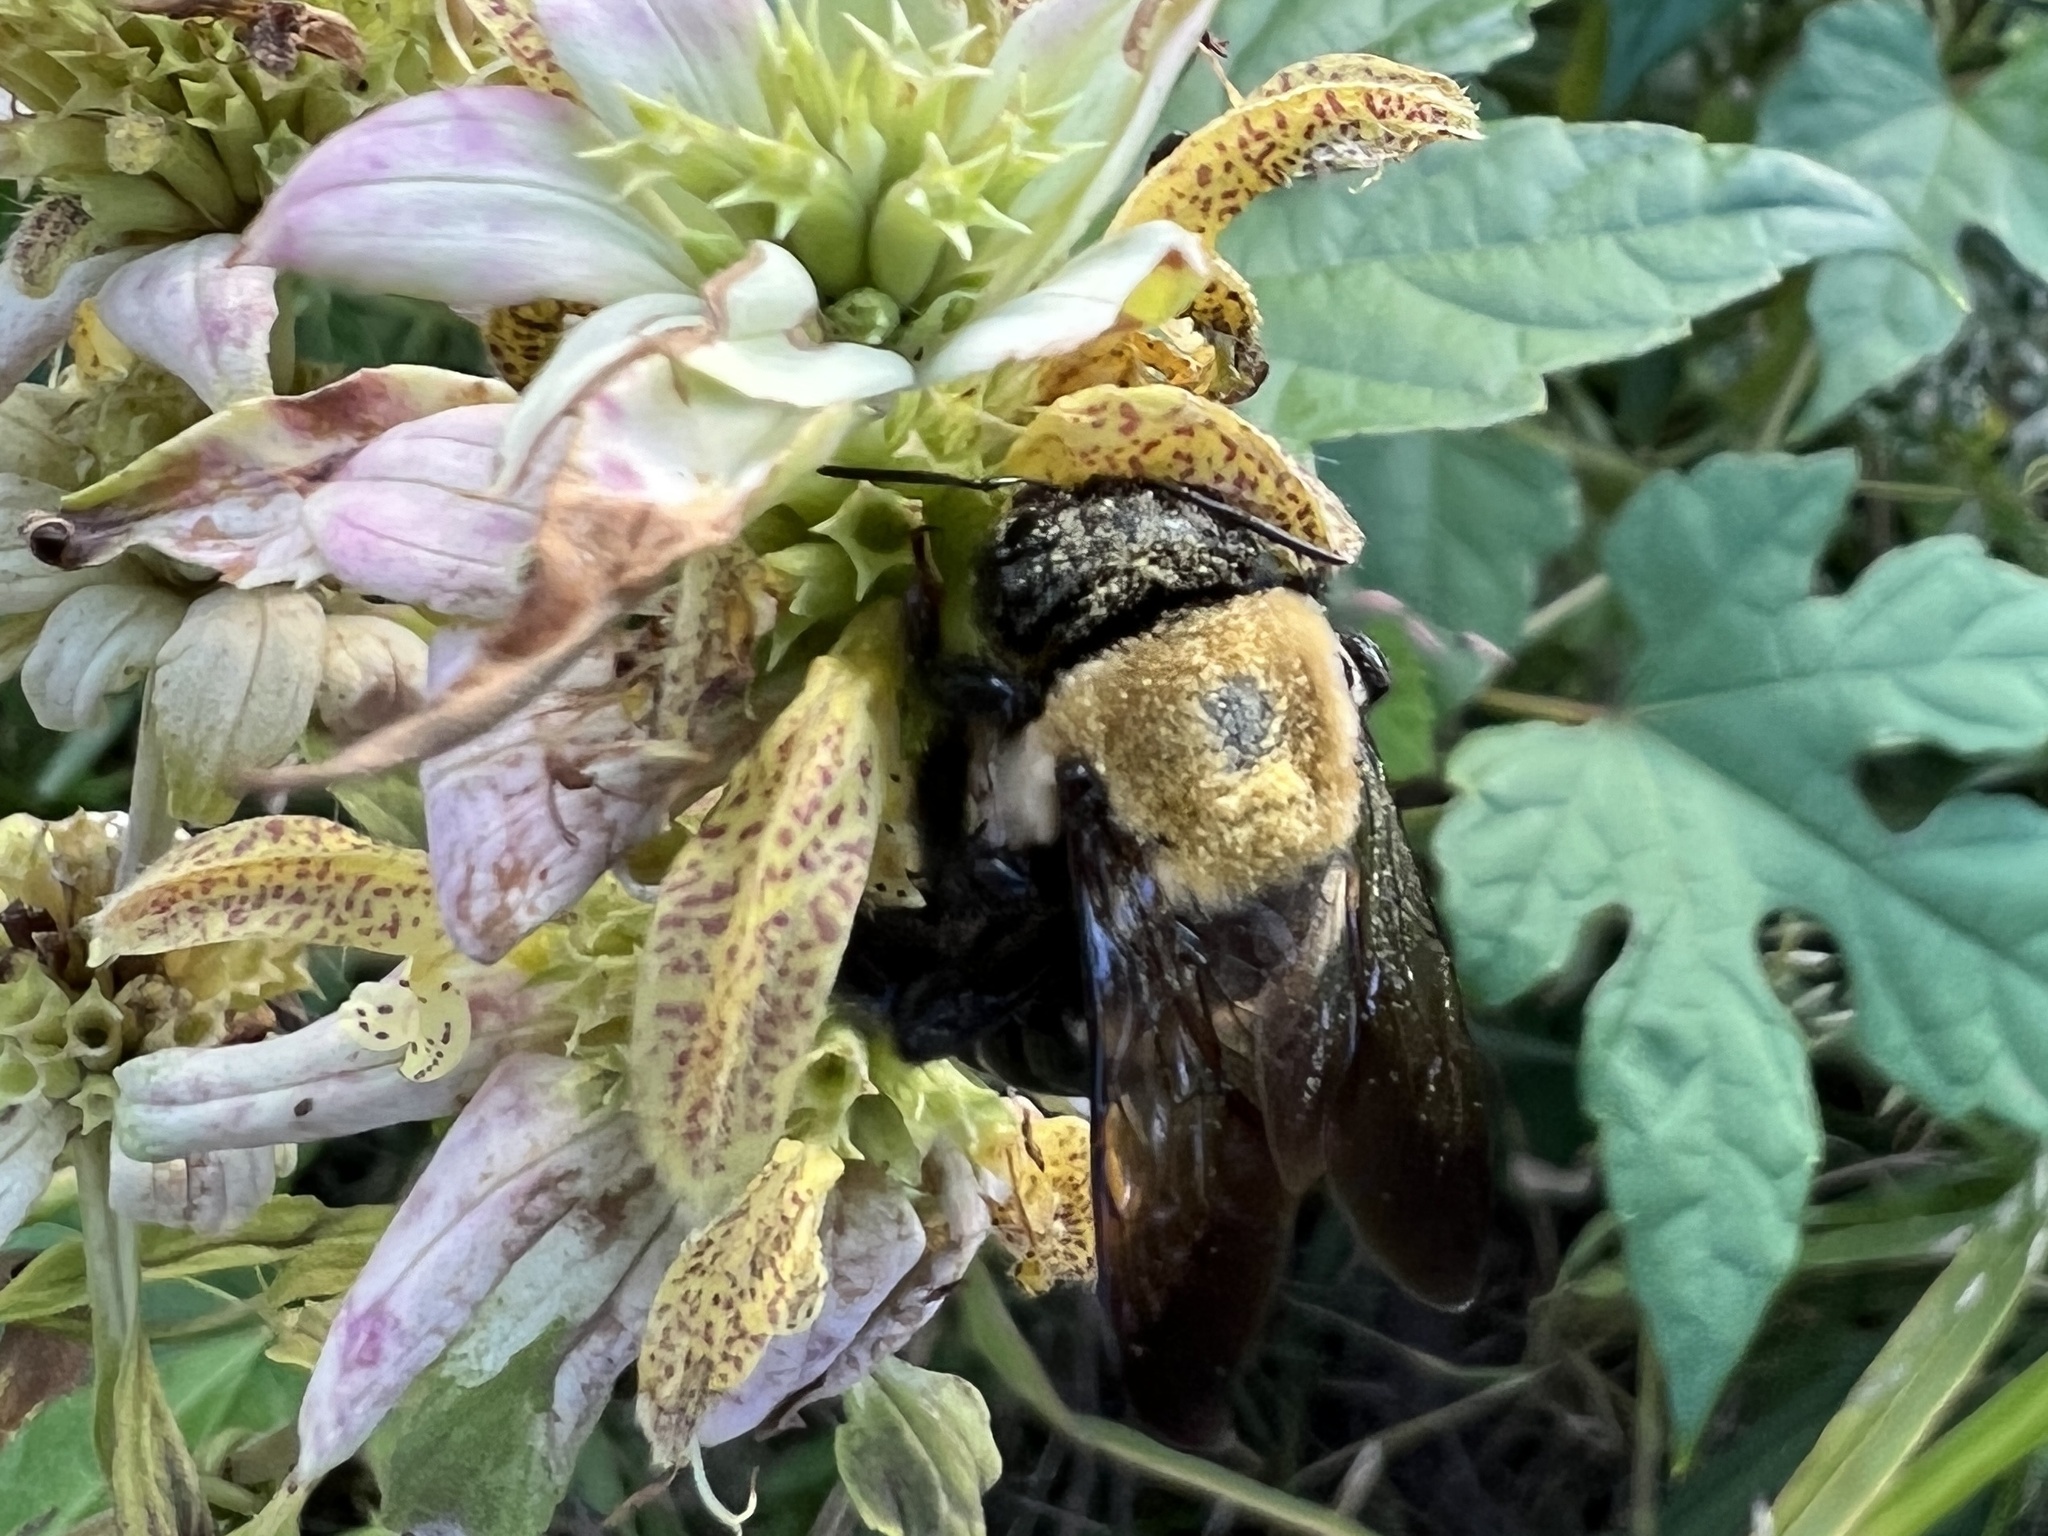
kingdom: Animalia
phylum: Arthropoda
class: Insecta
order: Hymenoptera
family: Apidae
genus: Xylocopa
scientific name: Xylocopa virginica
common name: Carpenter bee
